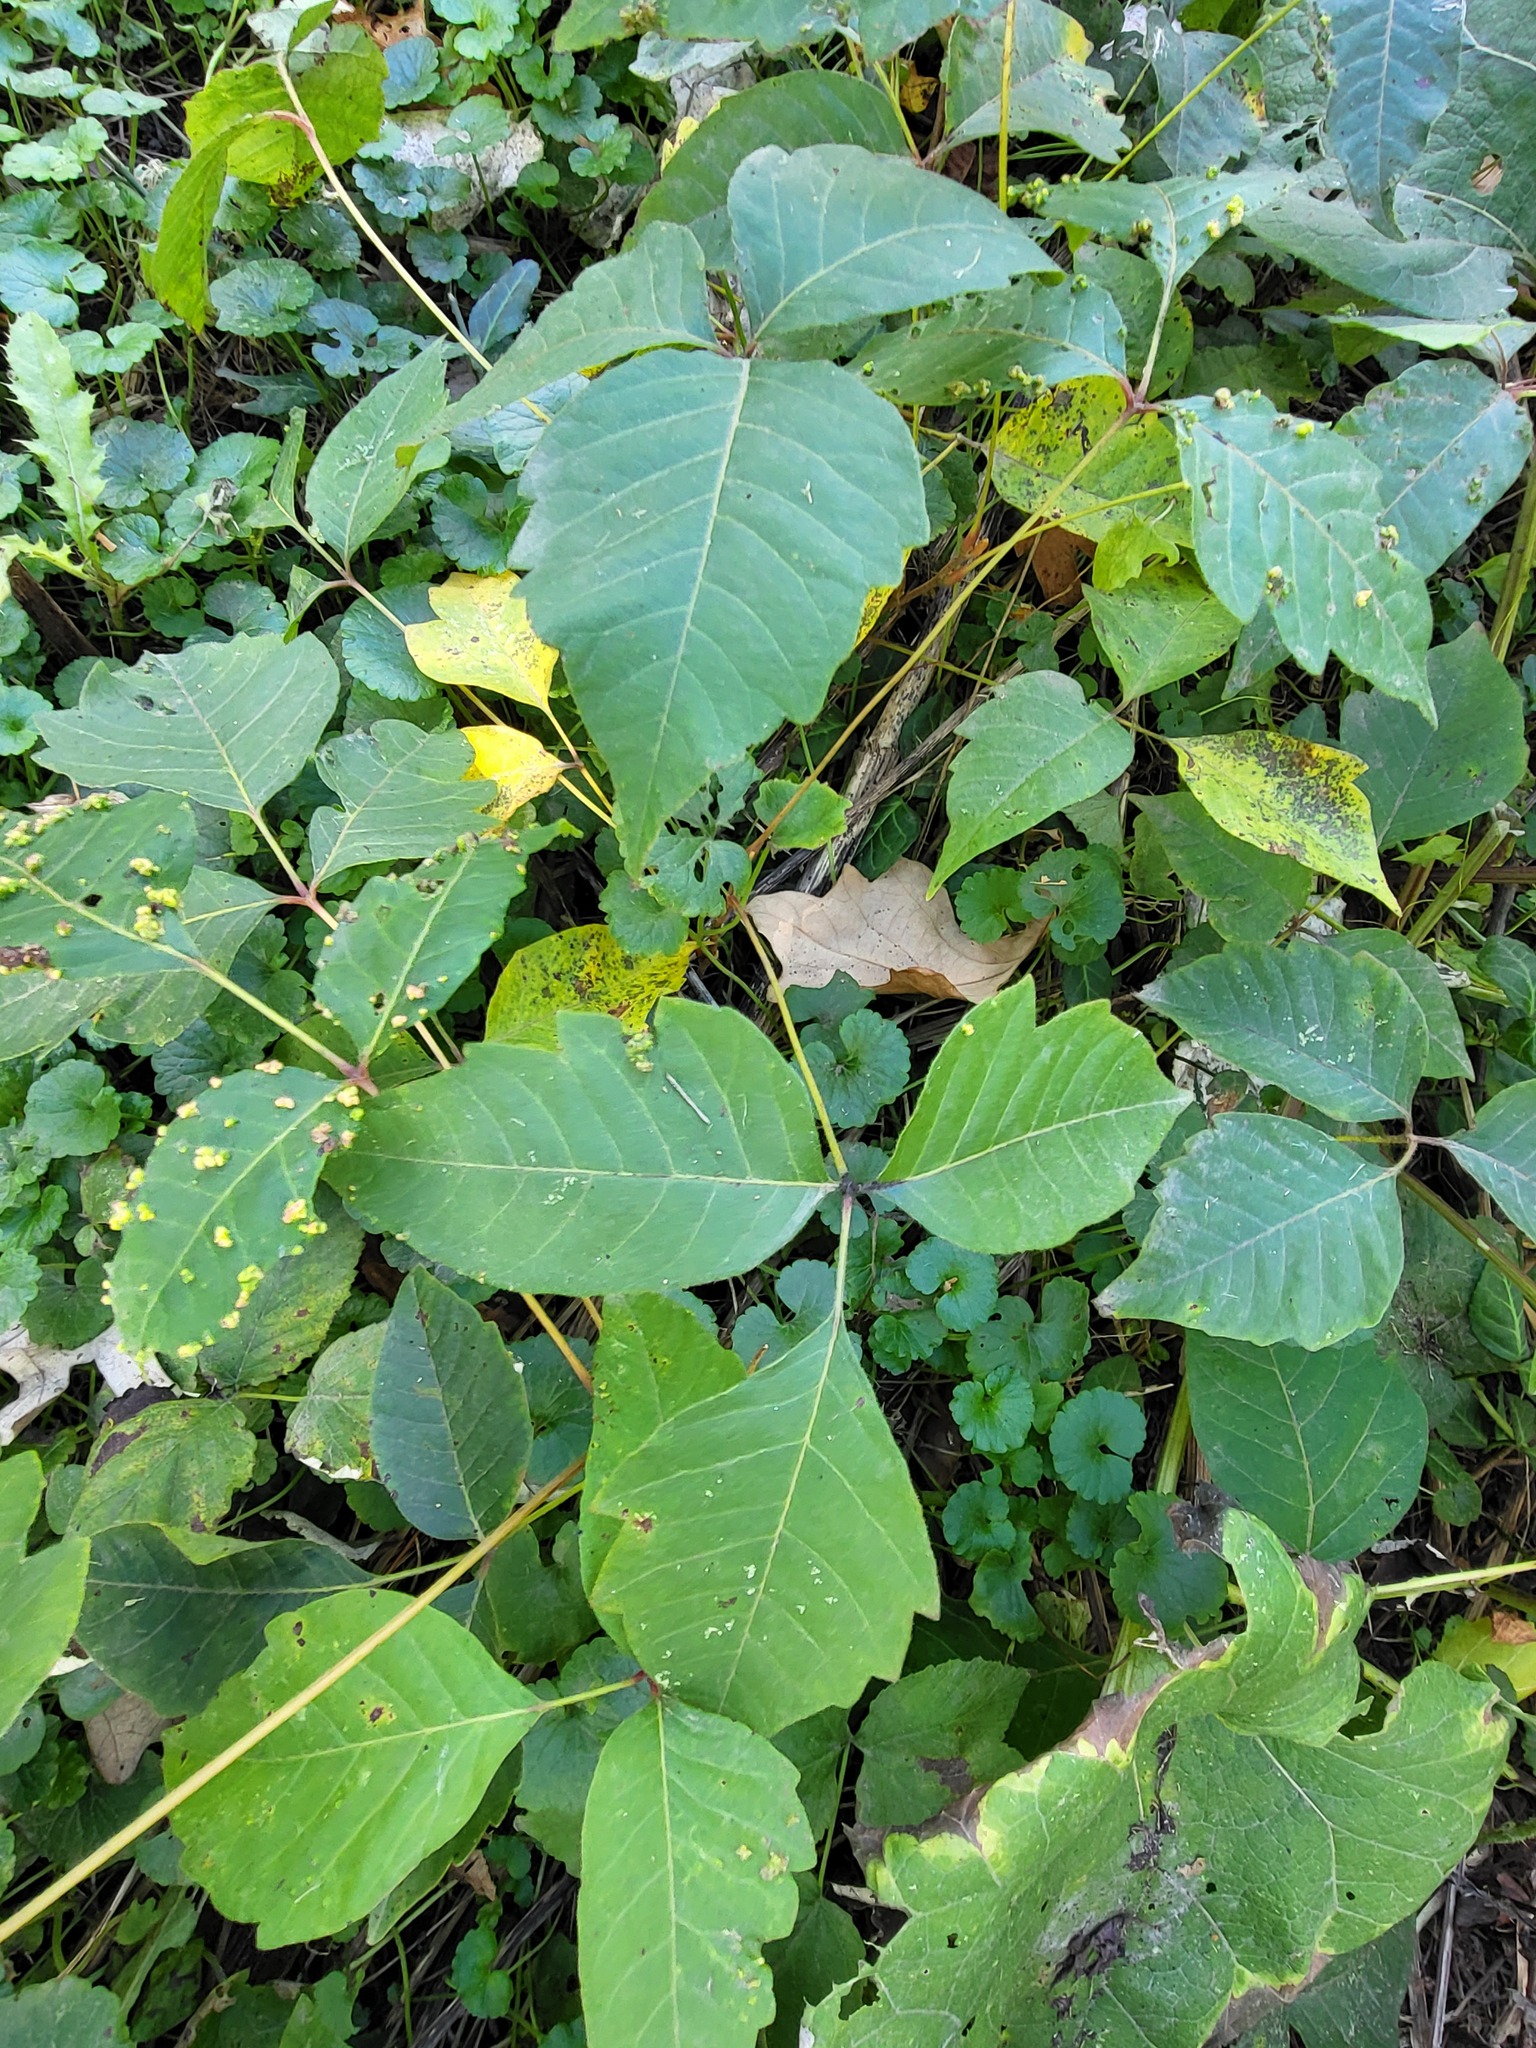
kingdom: Plantae
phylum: Tracheophyta
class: Magnoliopsida
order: Sapindales
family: Anacardiaceae
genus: Toxicodendron
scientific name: Toxicodendron radicans
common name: Poison ivy
